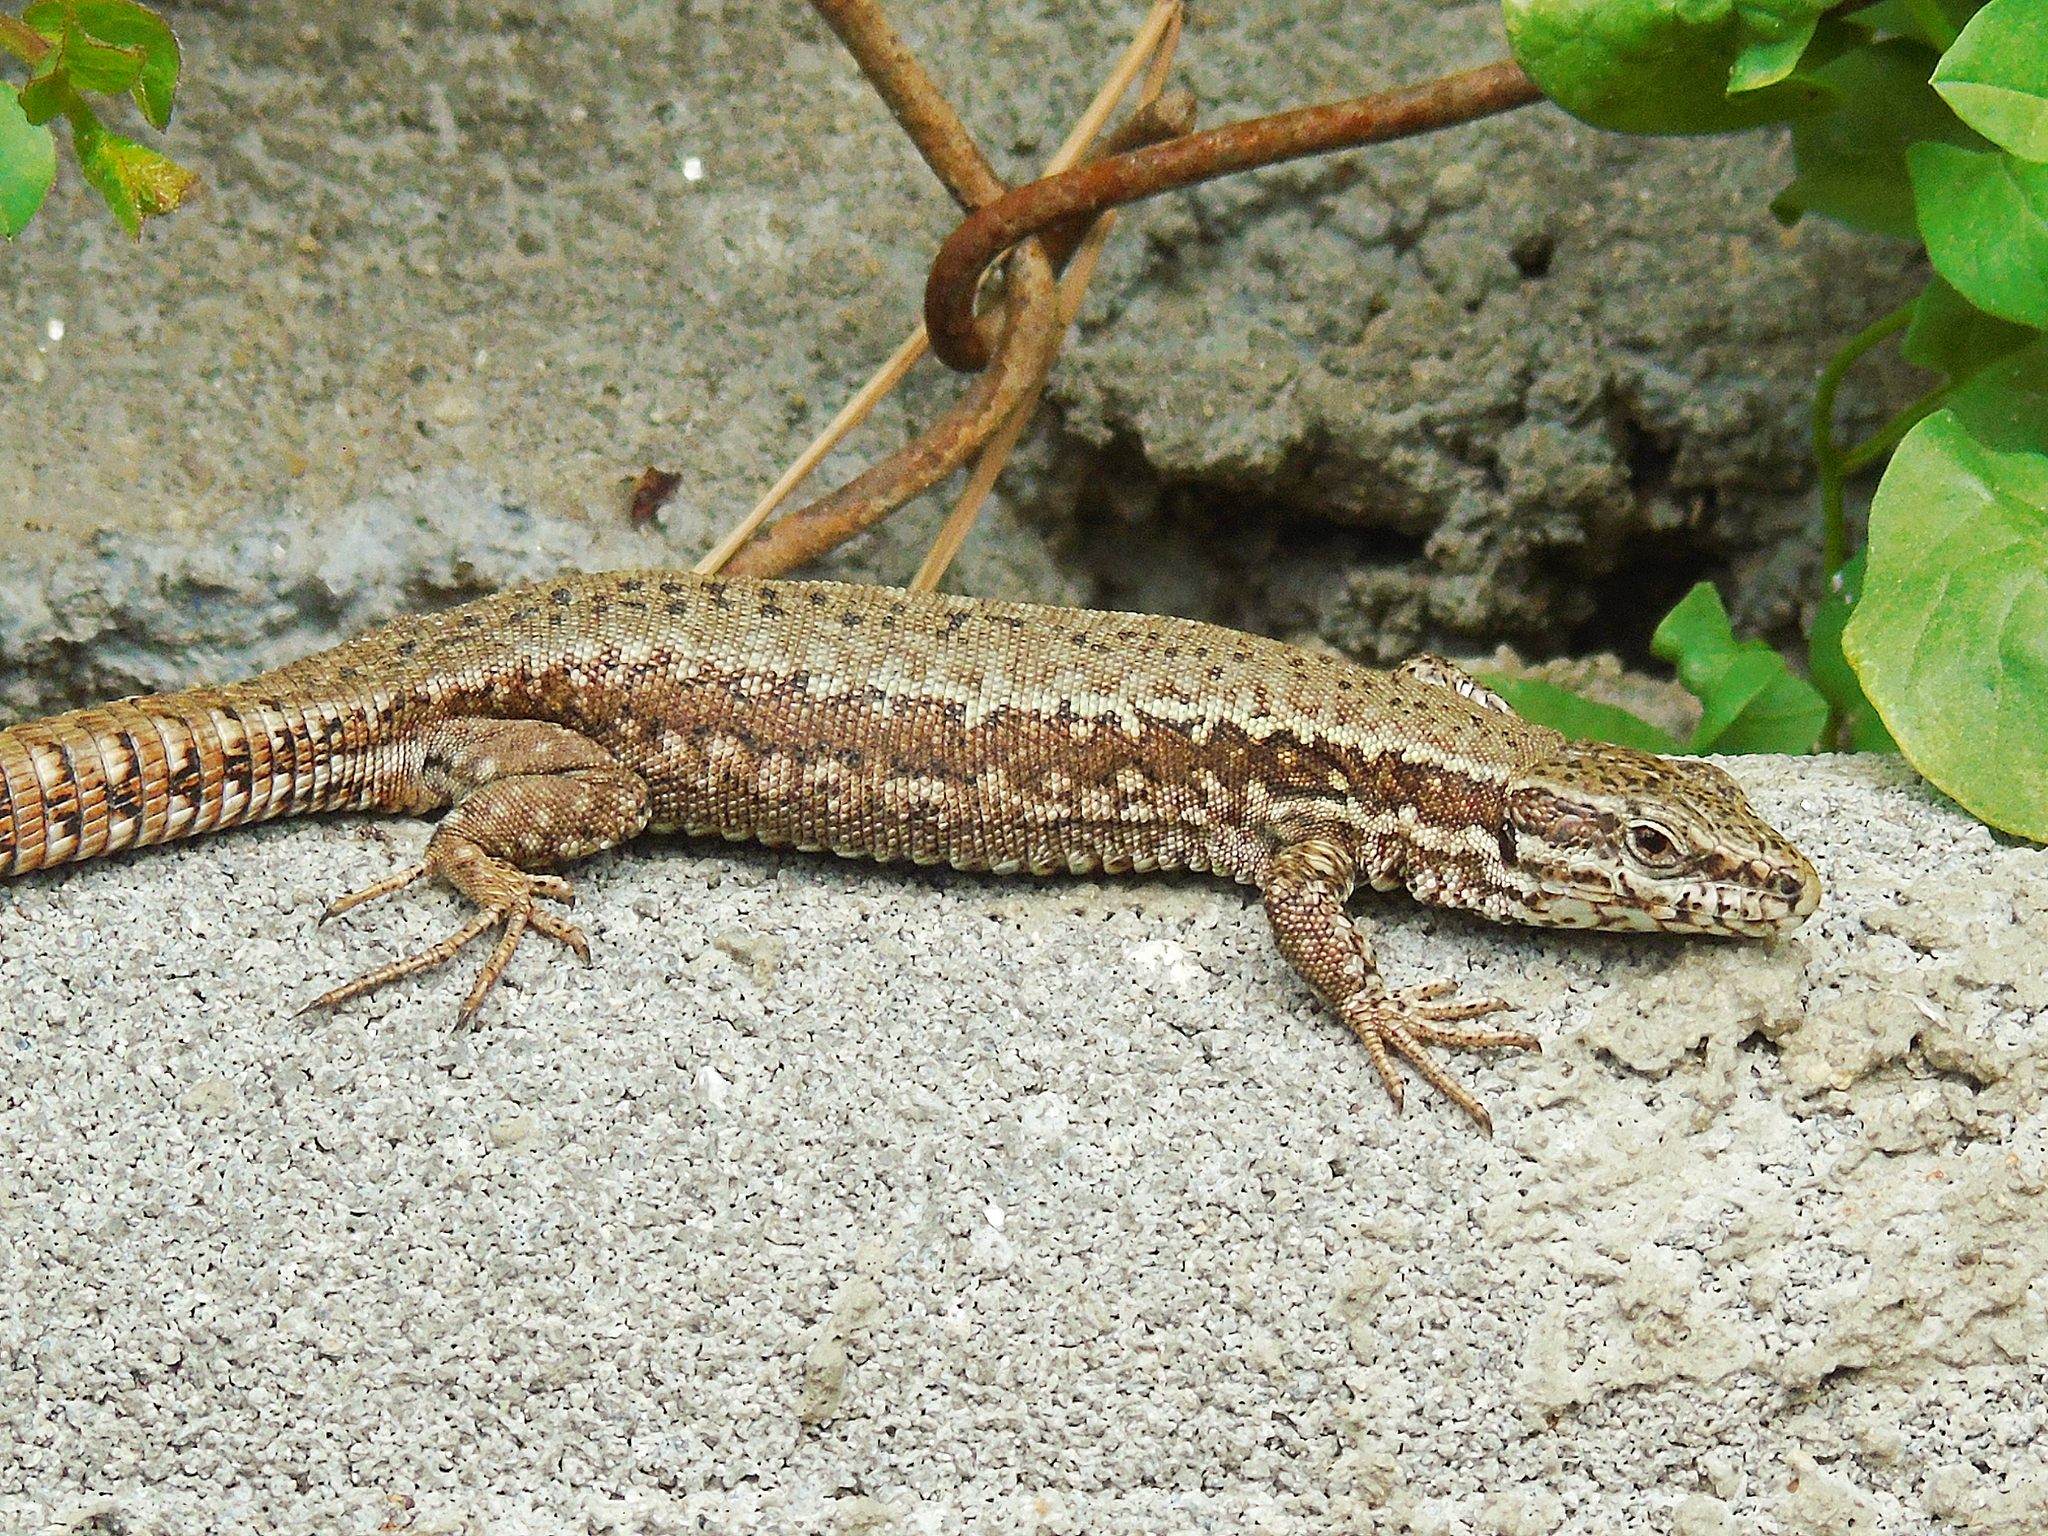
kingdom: Animalia
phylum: Chordata
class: Squamata
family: Lacertidae
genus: Podarcis
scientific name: Podarcis muralis
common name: Common wall lizard
